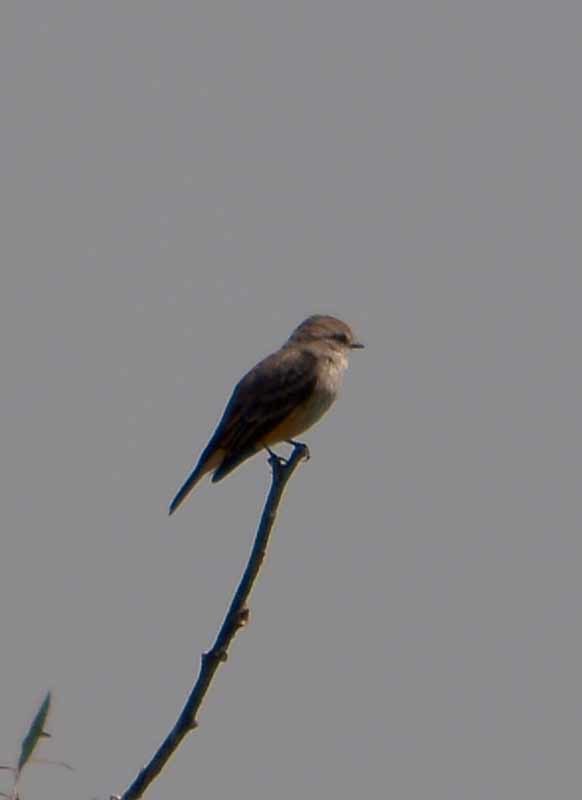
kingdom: Animalia
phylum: Chordata
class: Aves
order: Passeriformes
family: Tyrannidae
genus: Pyrocephalus
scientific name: Pyrocephalus rubinus
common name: Vermilion flycatcher
